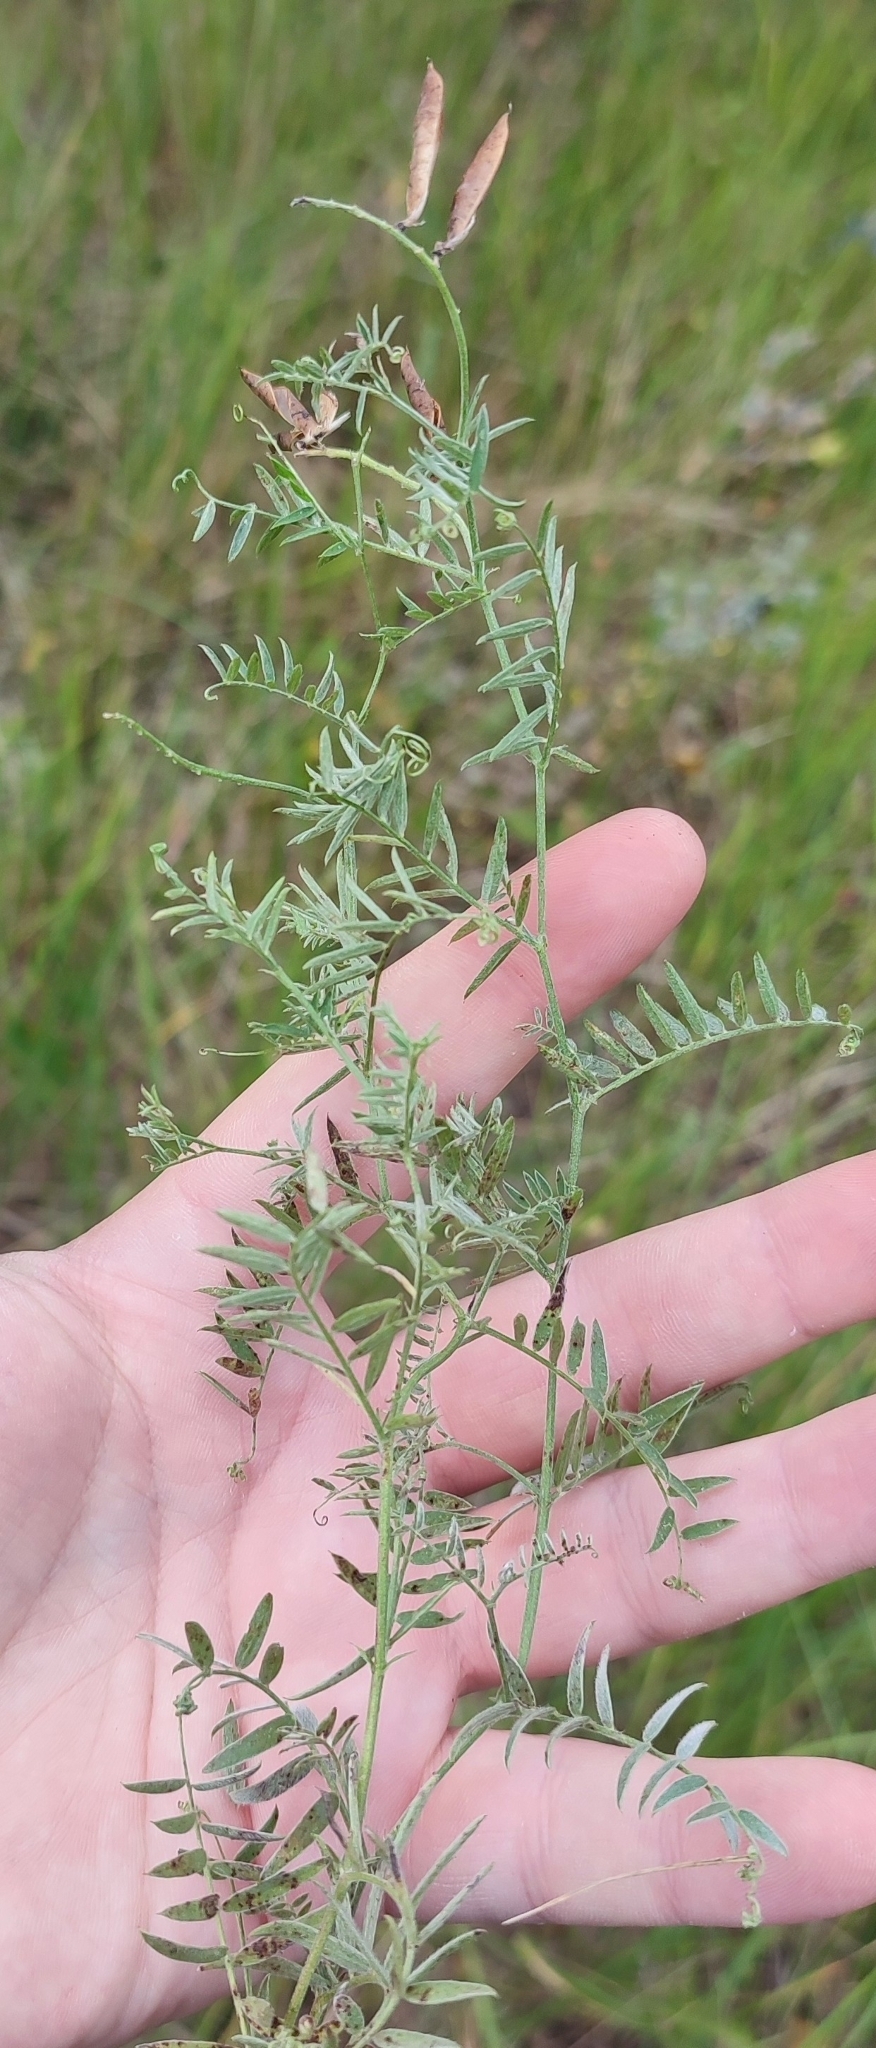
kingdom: Plantae
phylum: Tracheophyta
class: Magnoliopsida
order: Fabales
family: Fabaceae
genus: Vicia
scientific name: Vicia cracca
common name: Bird vetch
